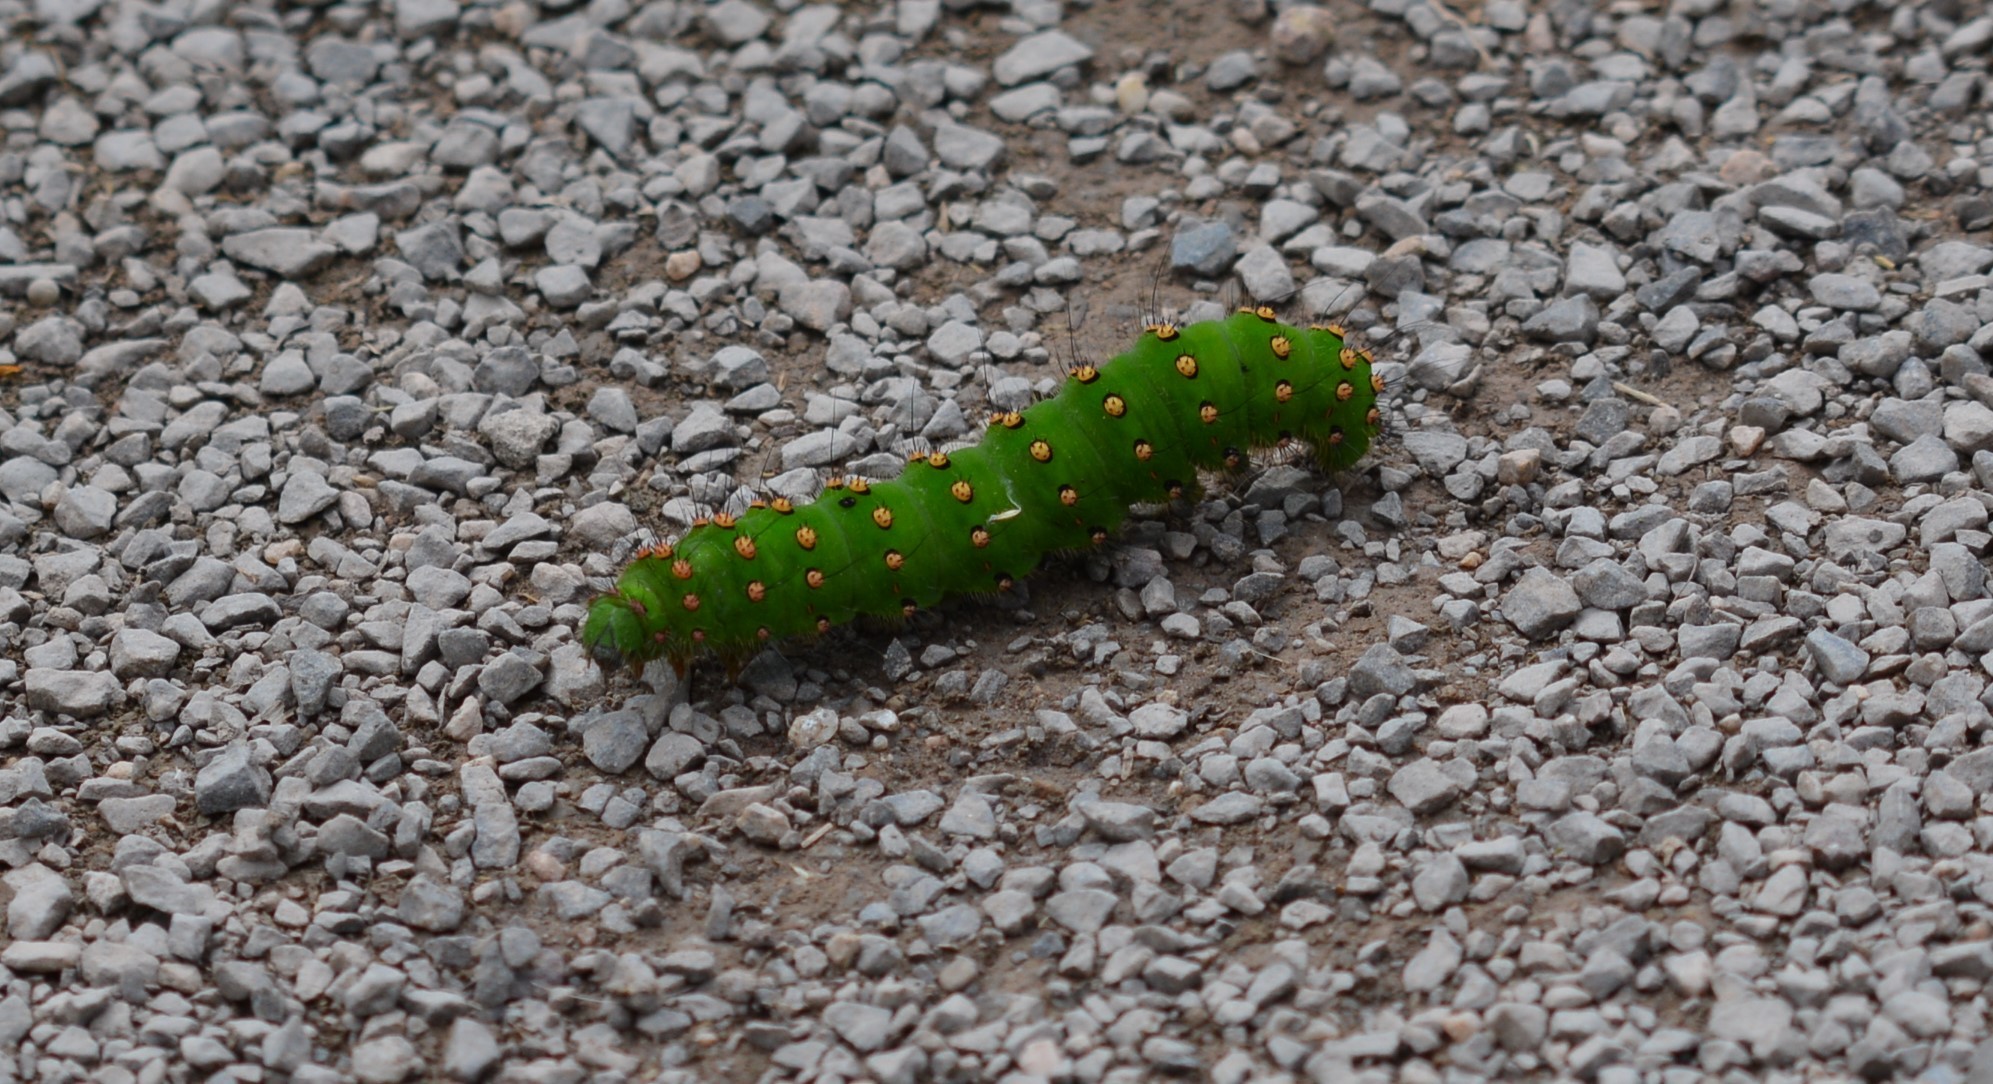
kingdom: Animalia
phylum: Arthropoda
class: Insecta
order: Lepidoptera
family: Saturniidae
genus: Saturnia
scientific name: Saturnia pavonia
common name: Emperor moth
